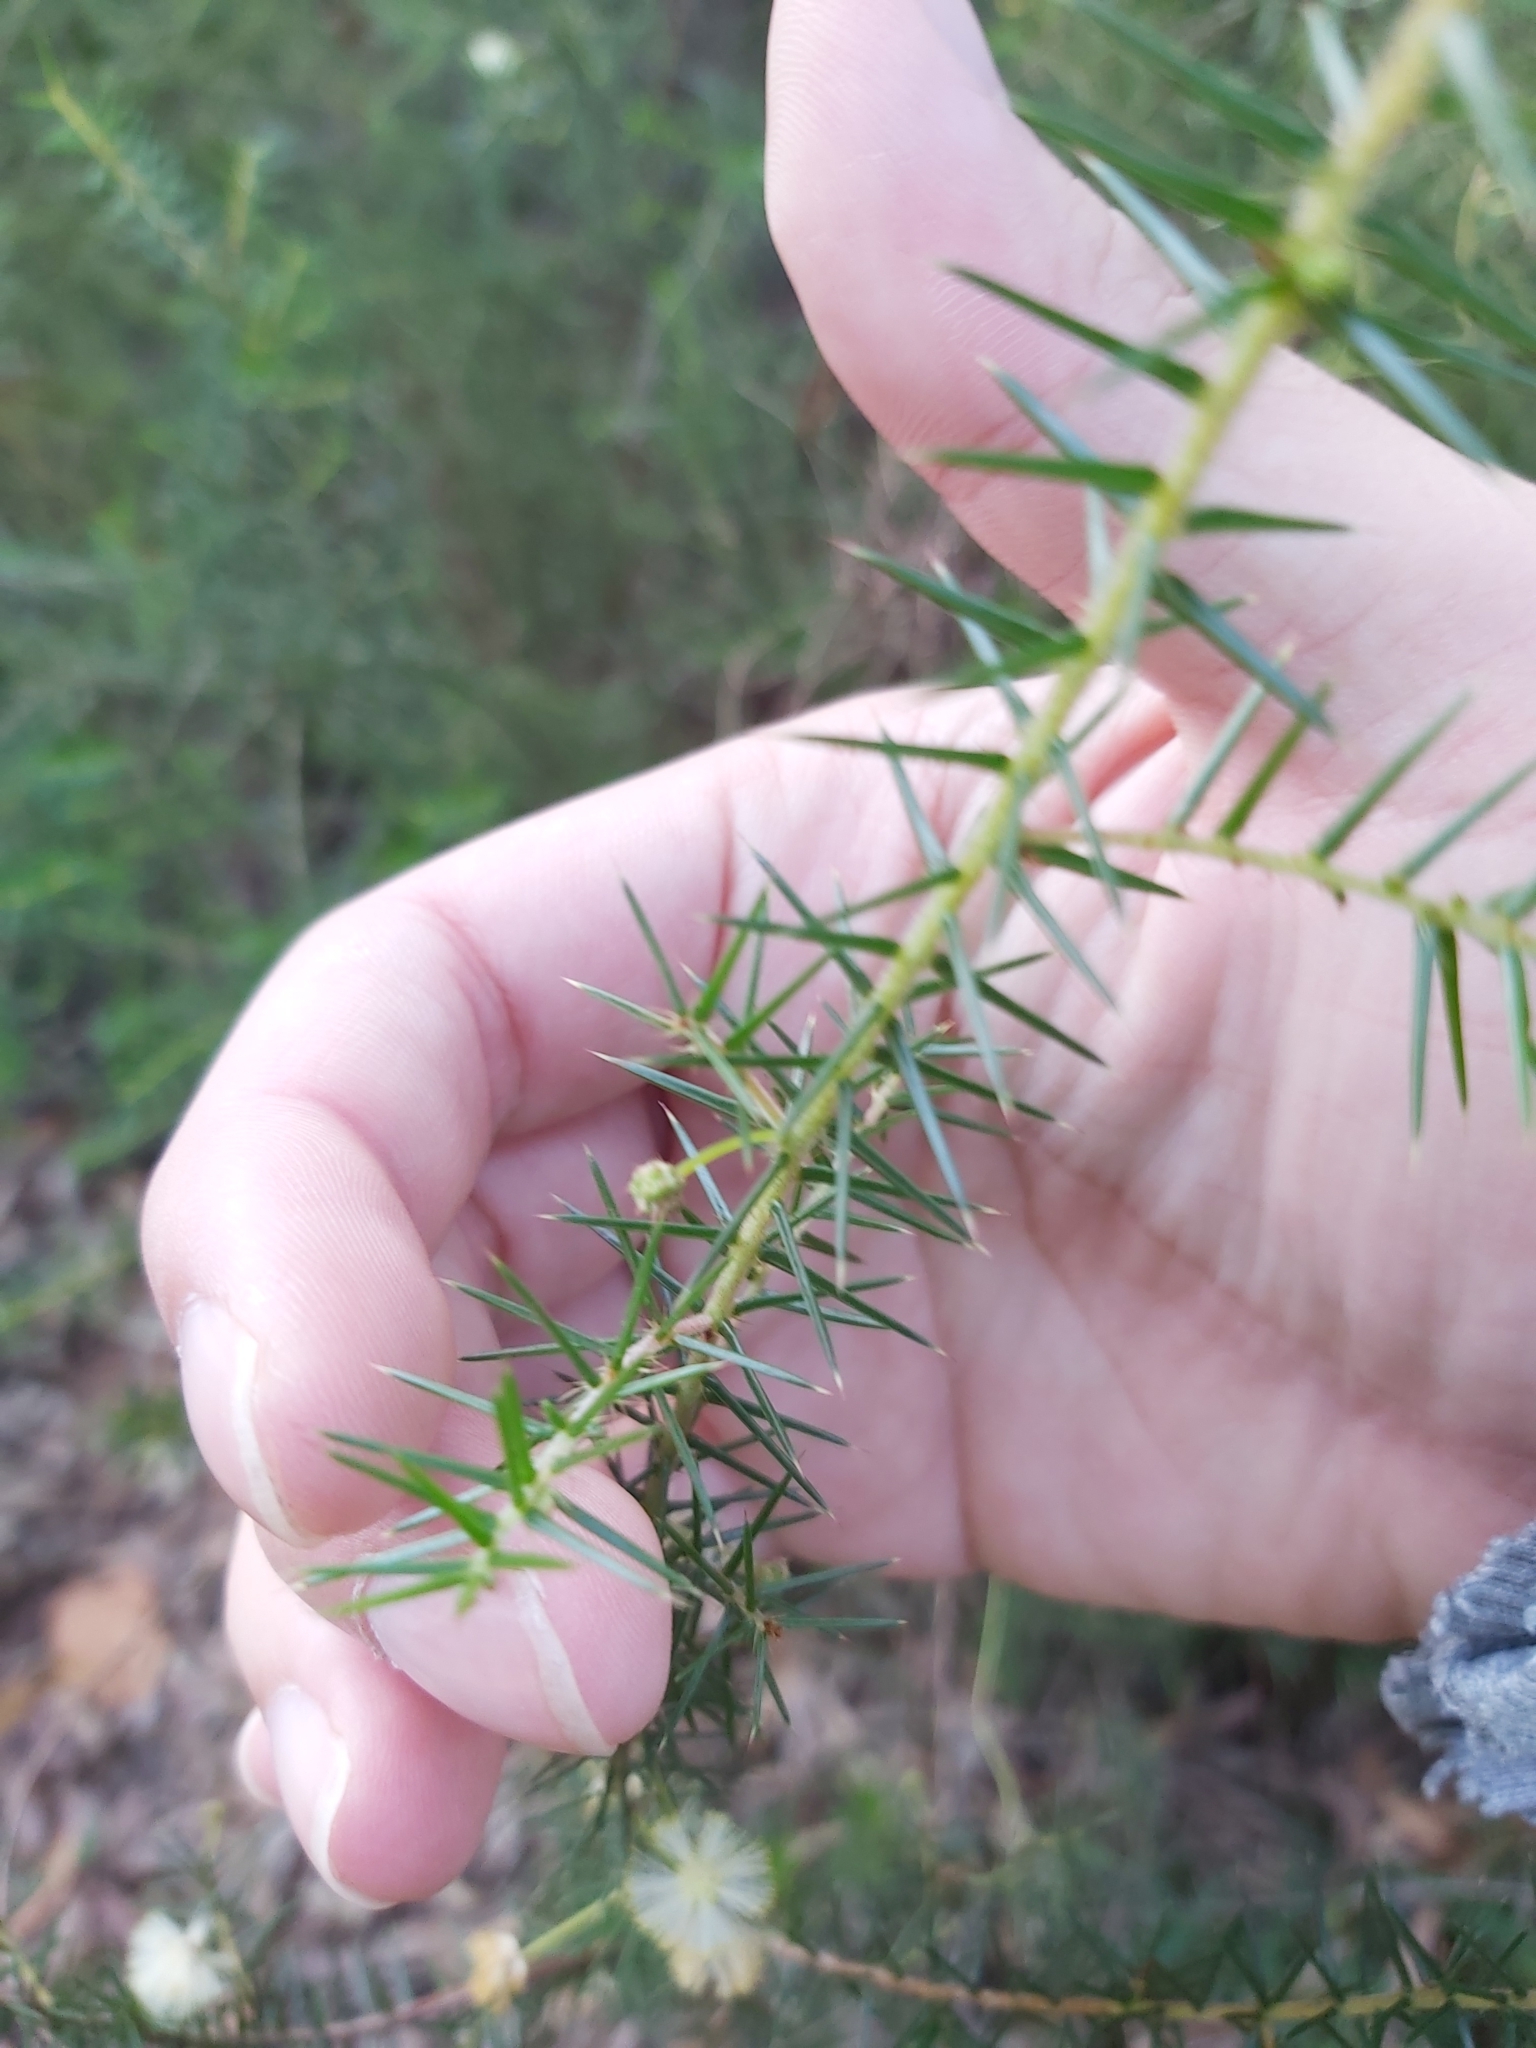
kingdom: Plantae
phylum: Tracheophyta
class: Magnoliopsida
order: Fabales
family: Fabaceae
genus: Acacia
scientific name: Acacia ulicifolia
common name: Juniper wattle
